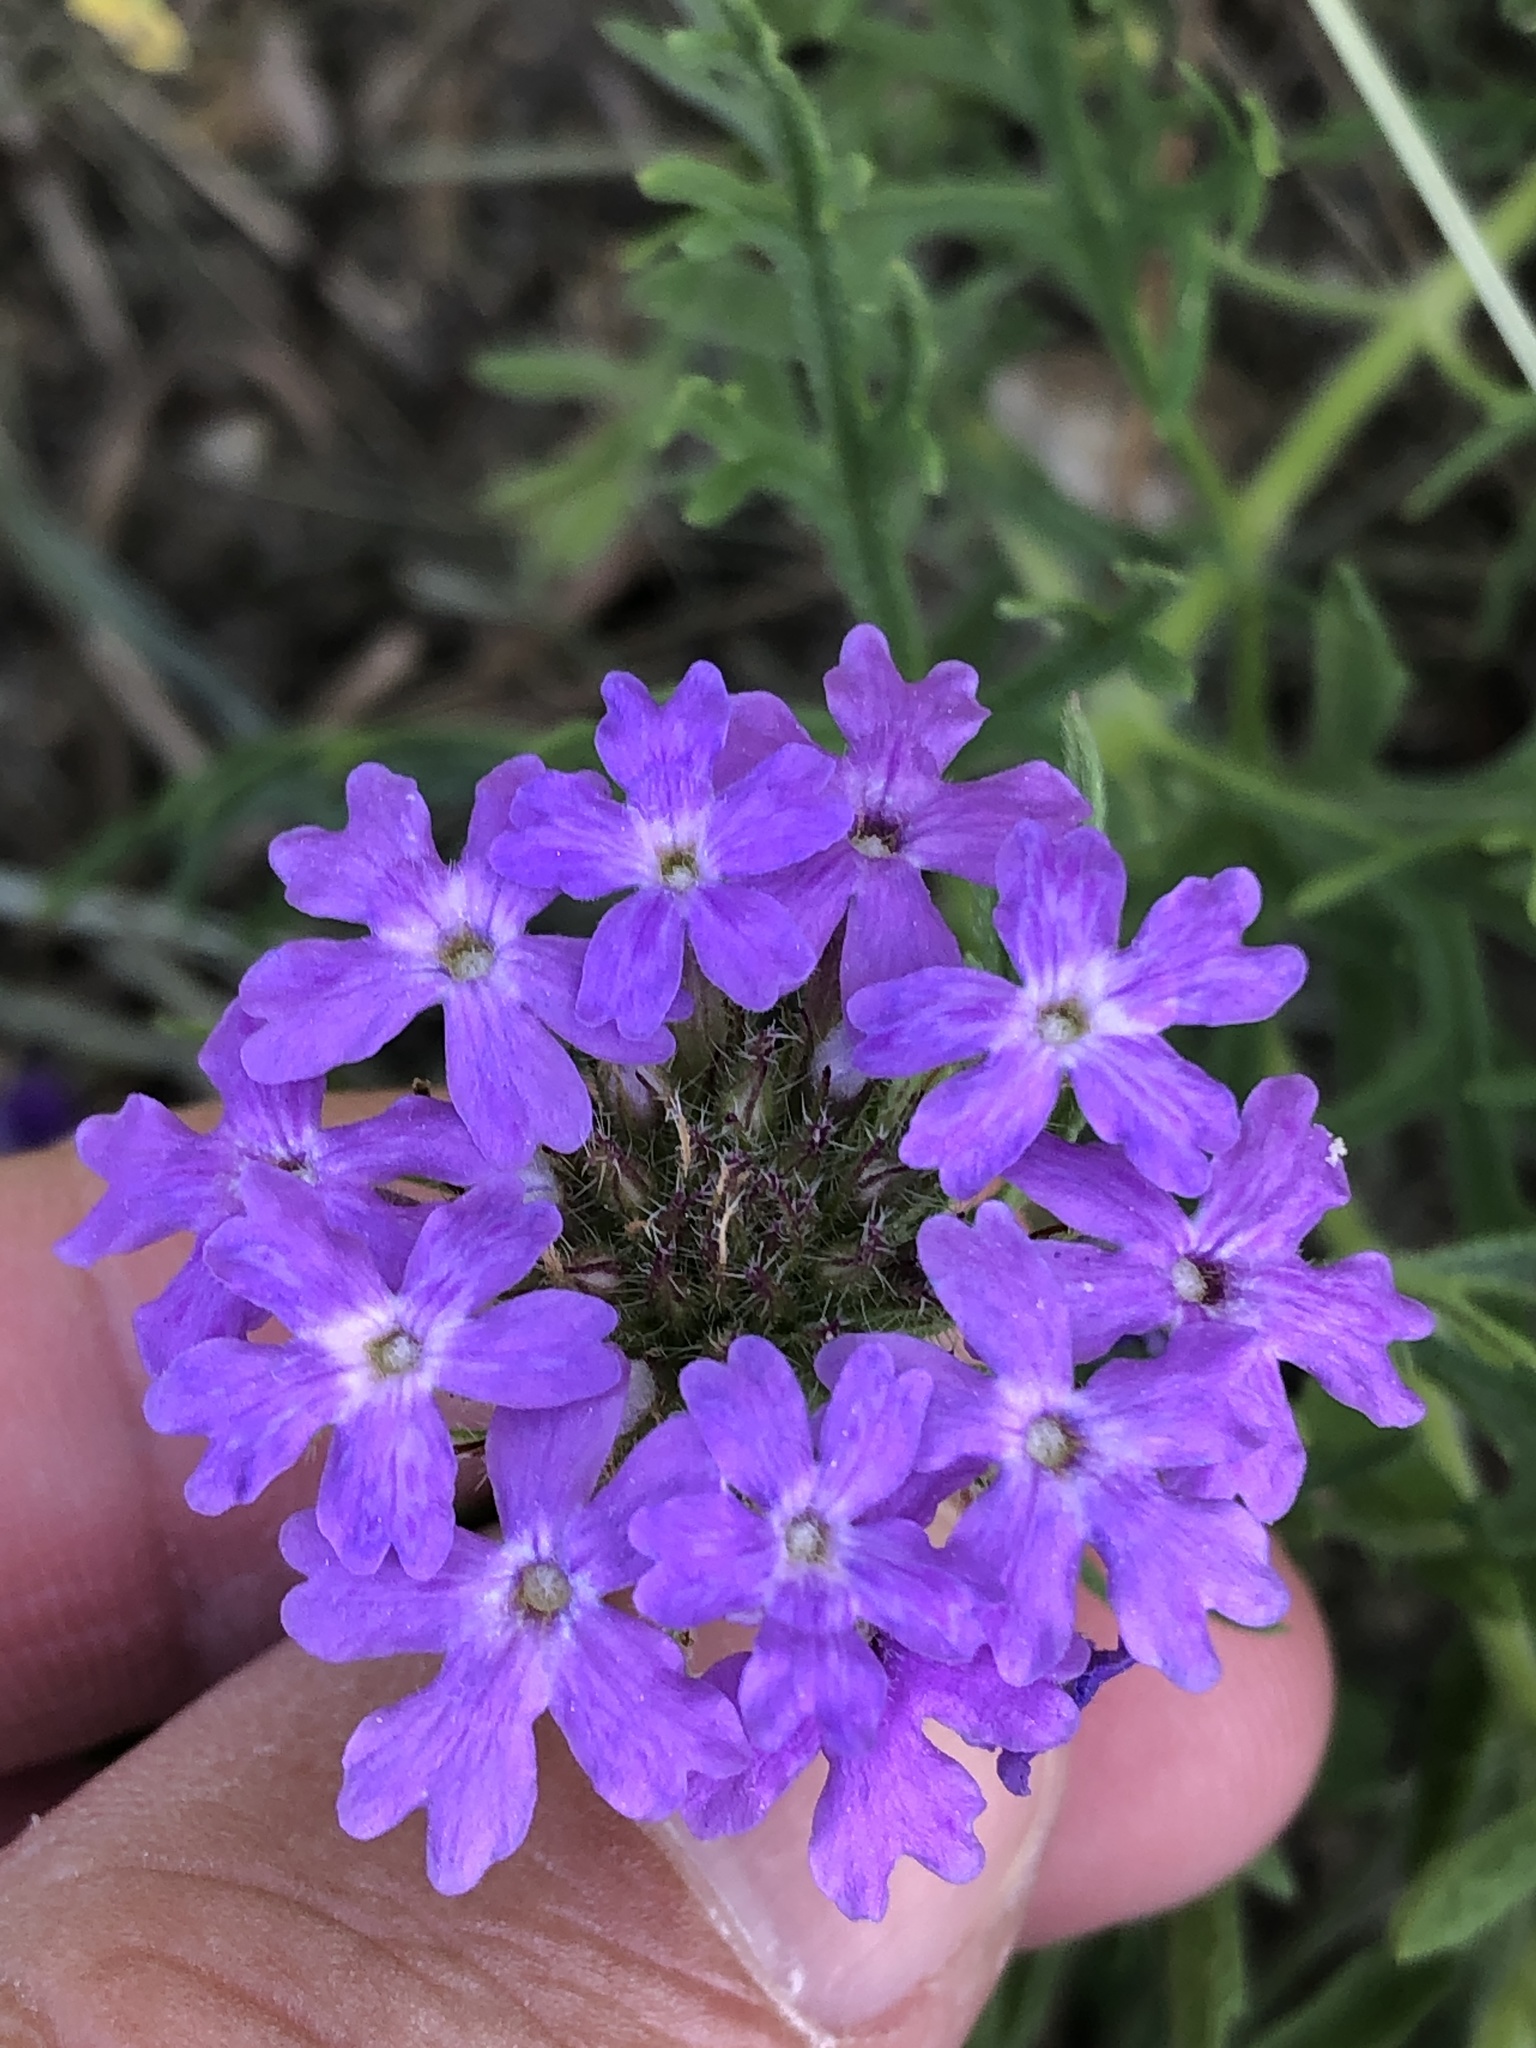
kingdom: Plantae
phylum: Tracheophyta
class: Magnoliopsida
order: Lamiales
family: Verbenaceae
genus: Verbena
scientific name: Verbena bipinnatifida
